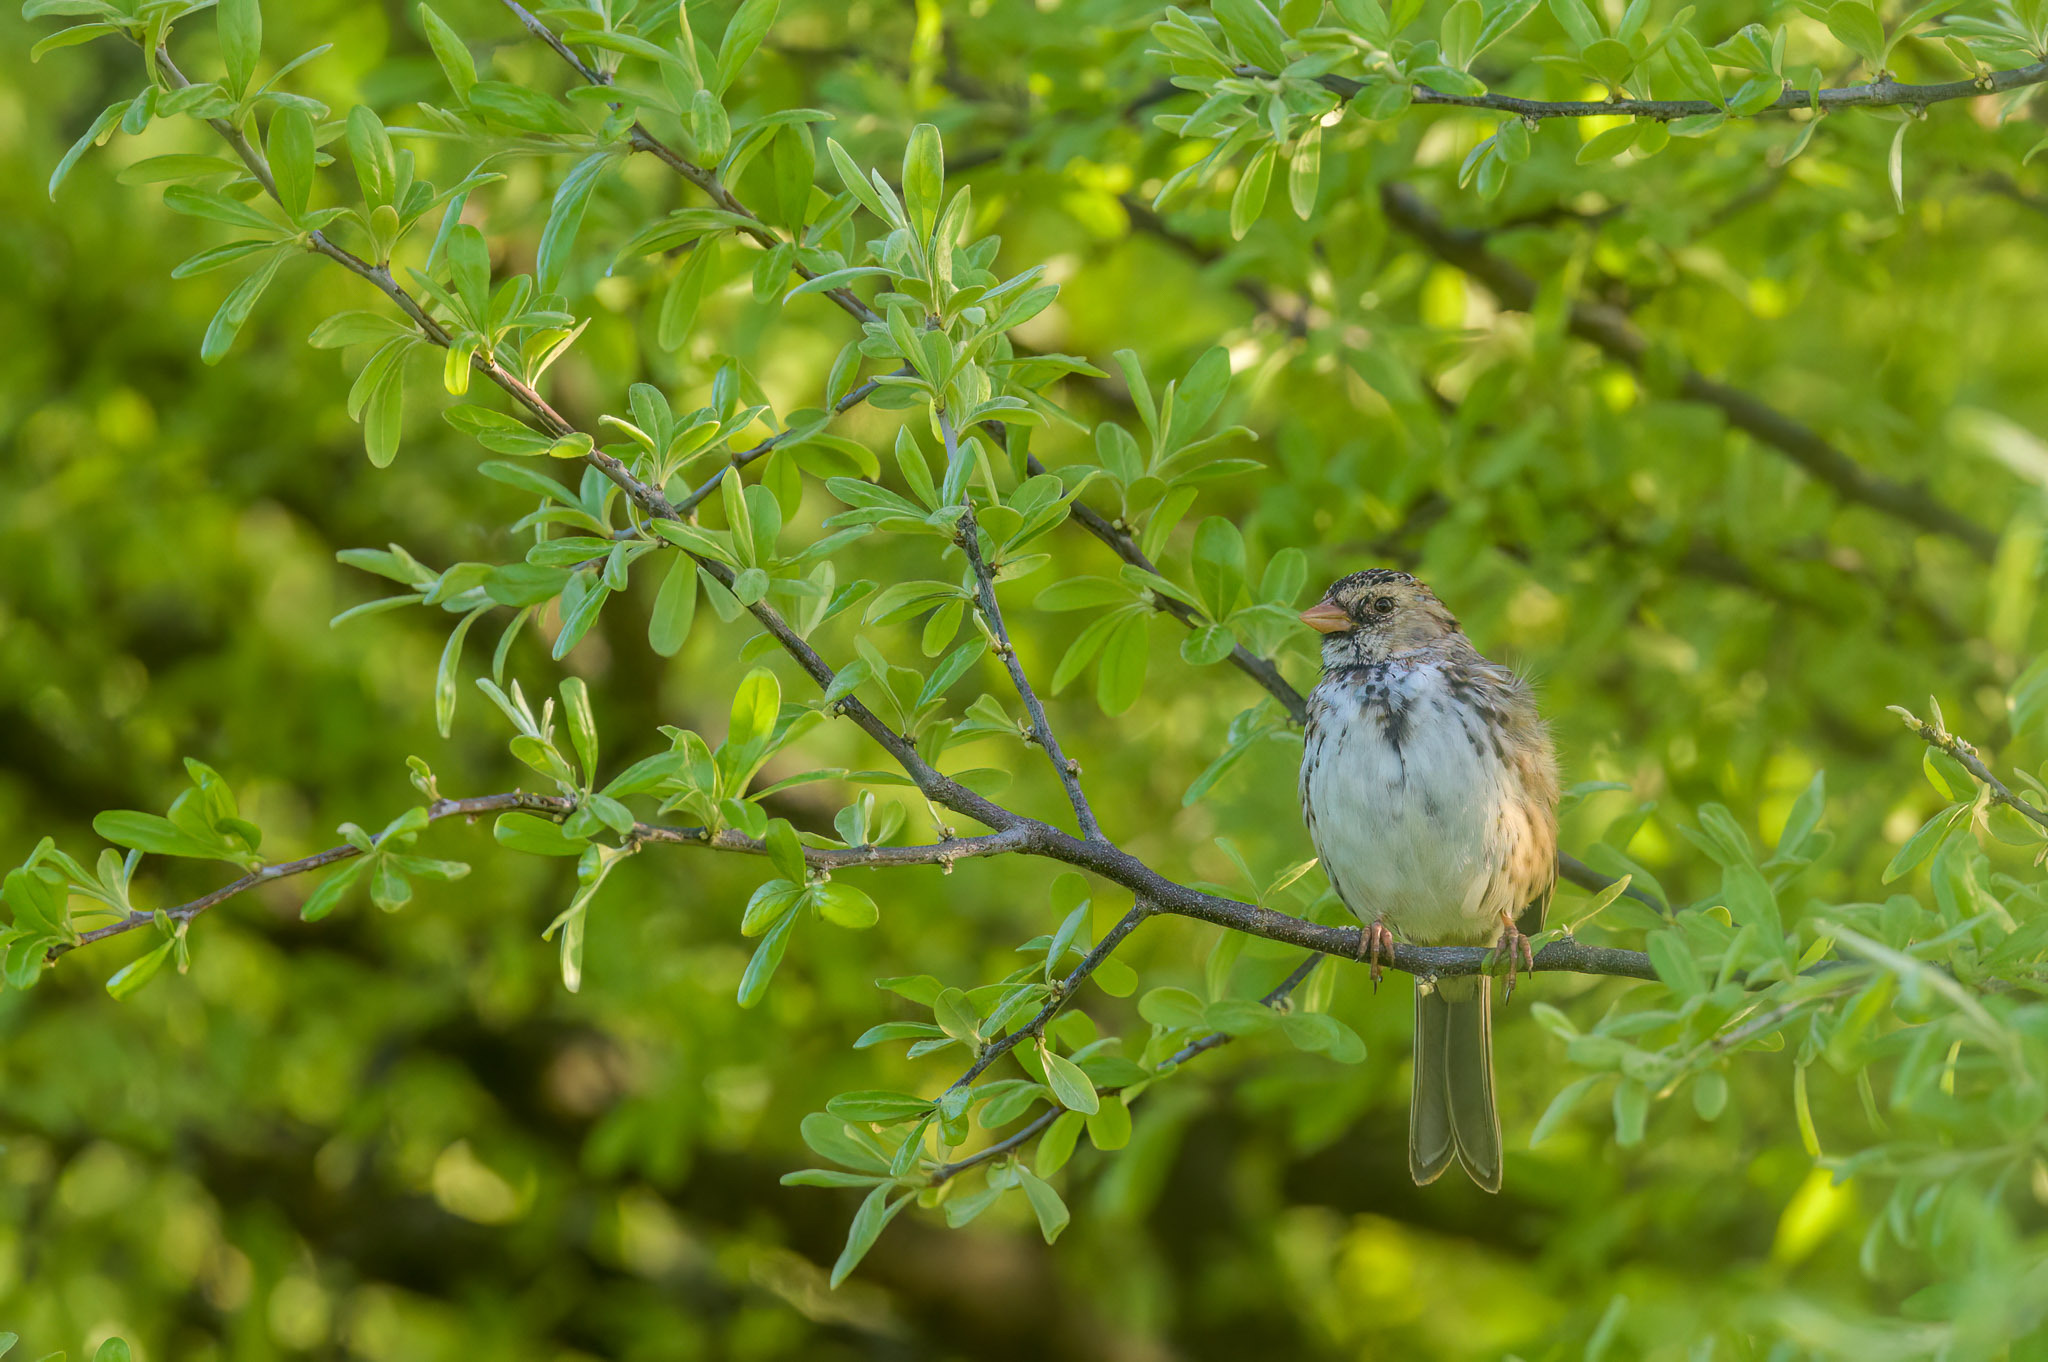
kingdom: Animalia
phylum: Chordata
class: Aves
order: Passeriformes
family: Passerellidae
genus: Zonotrichia
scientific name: Zonotrichia querula
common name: Harris's sparrow
